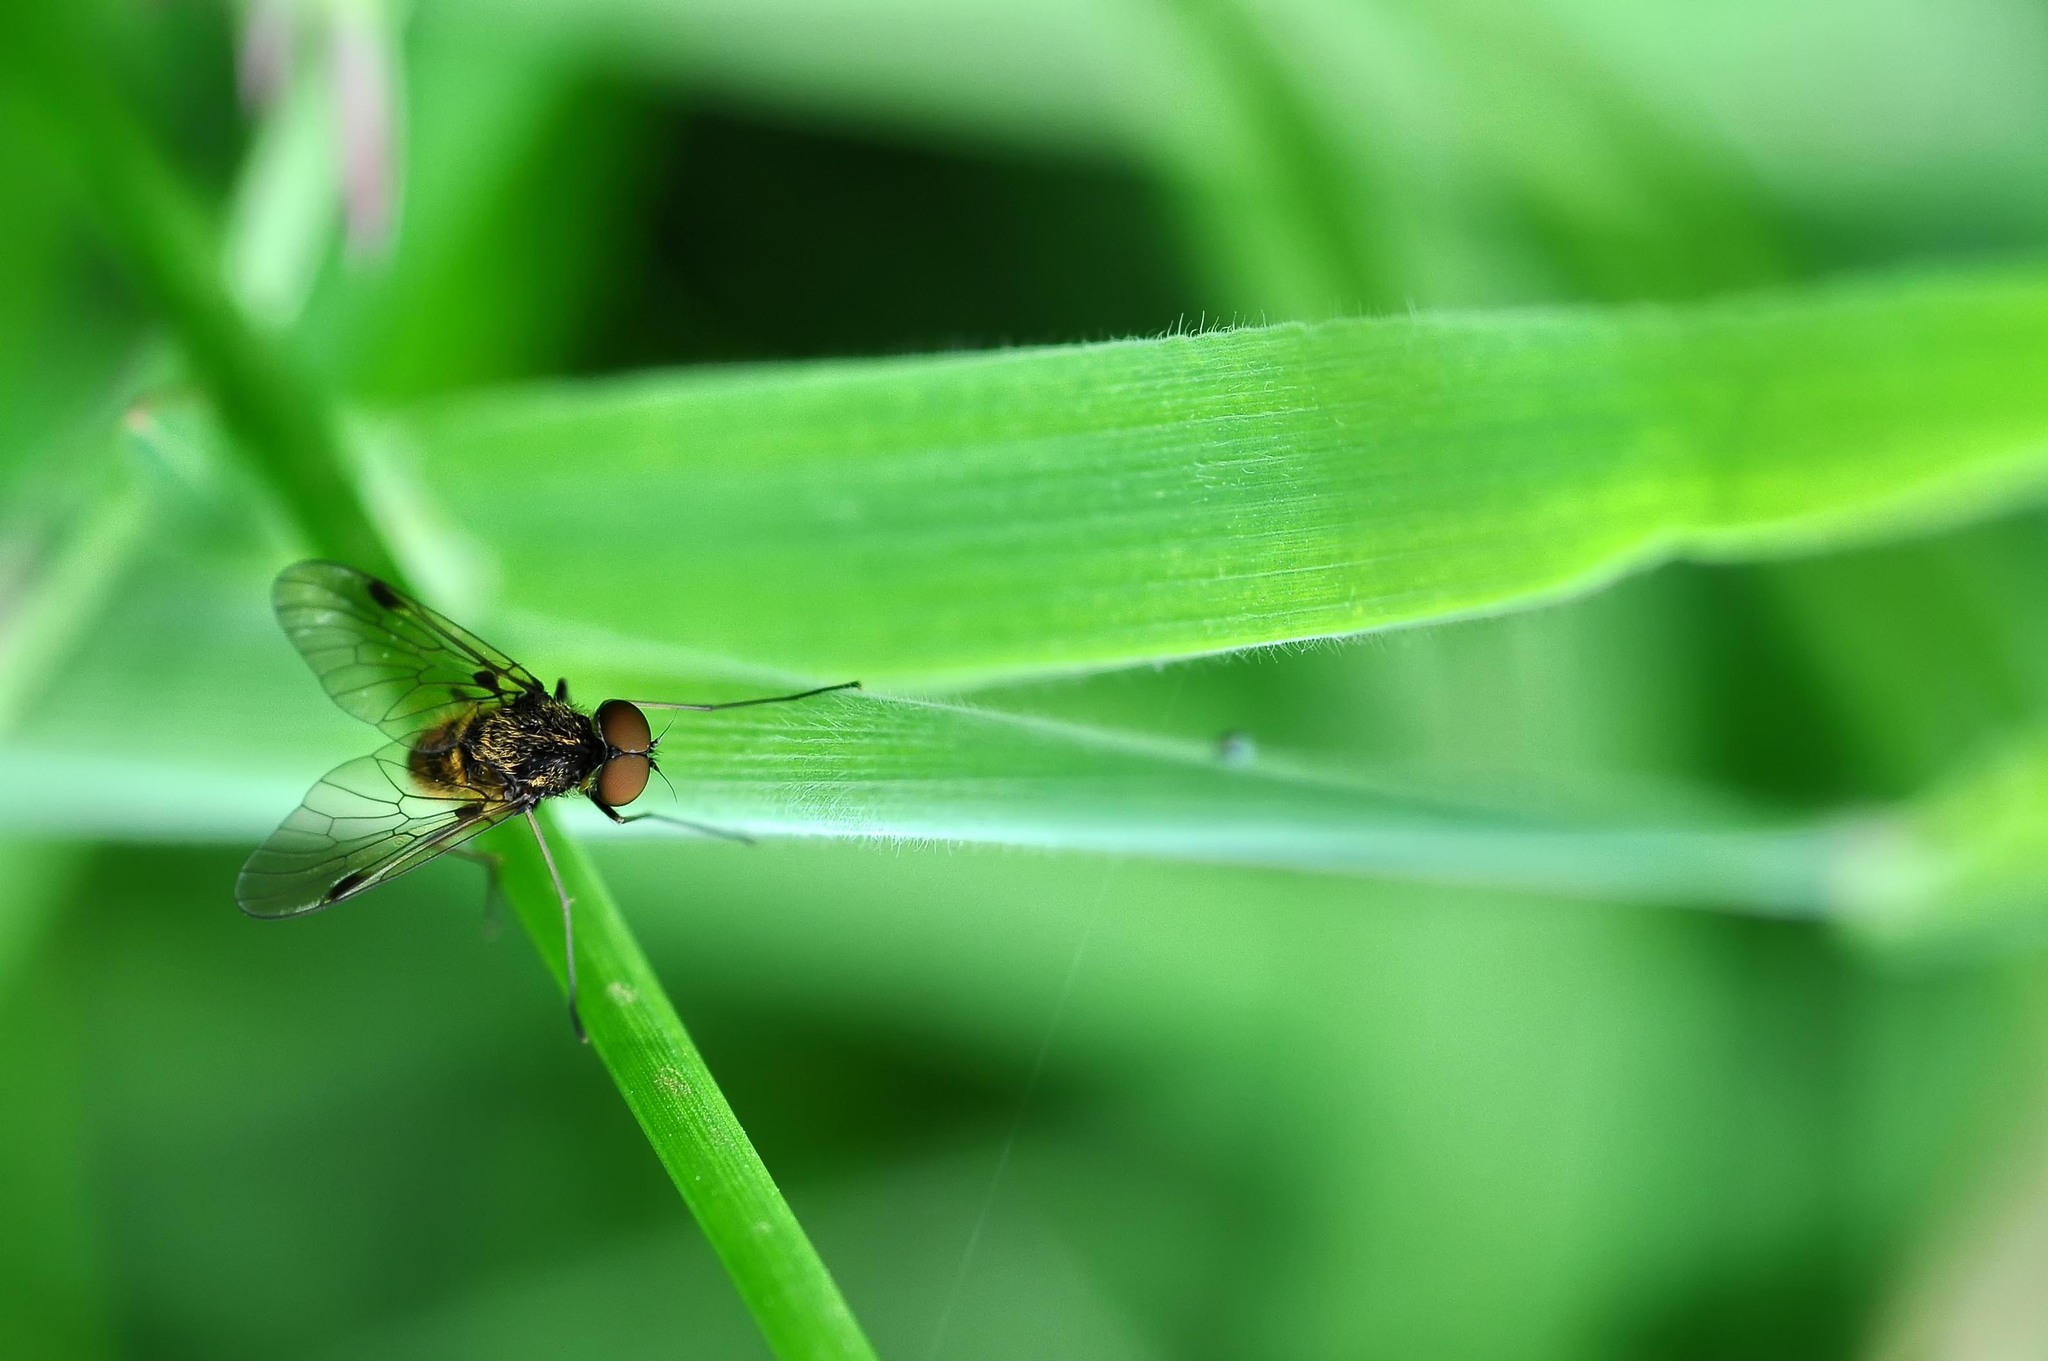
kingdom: Animalia
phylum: Arthropoda
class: Insecta
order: Diptera
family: Rhagionidae
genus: Chrysopilus
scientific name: Chrysopilus cristatus
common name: Black snipefly
